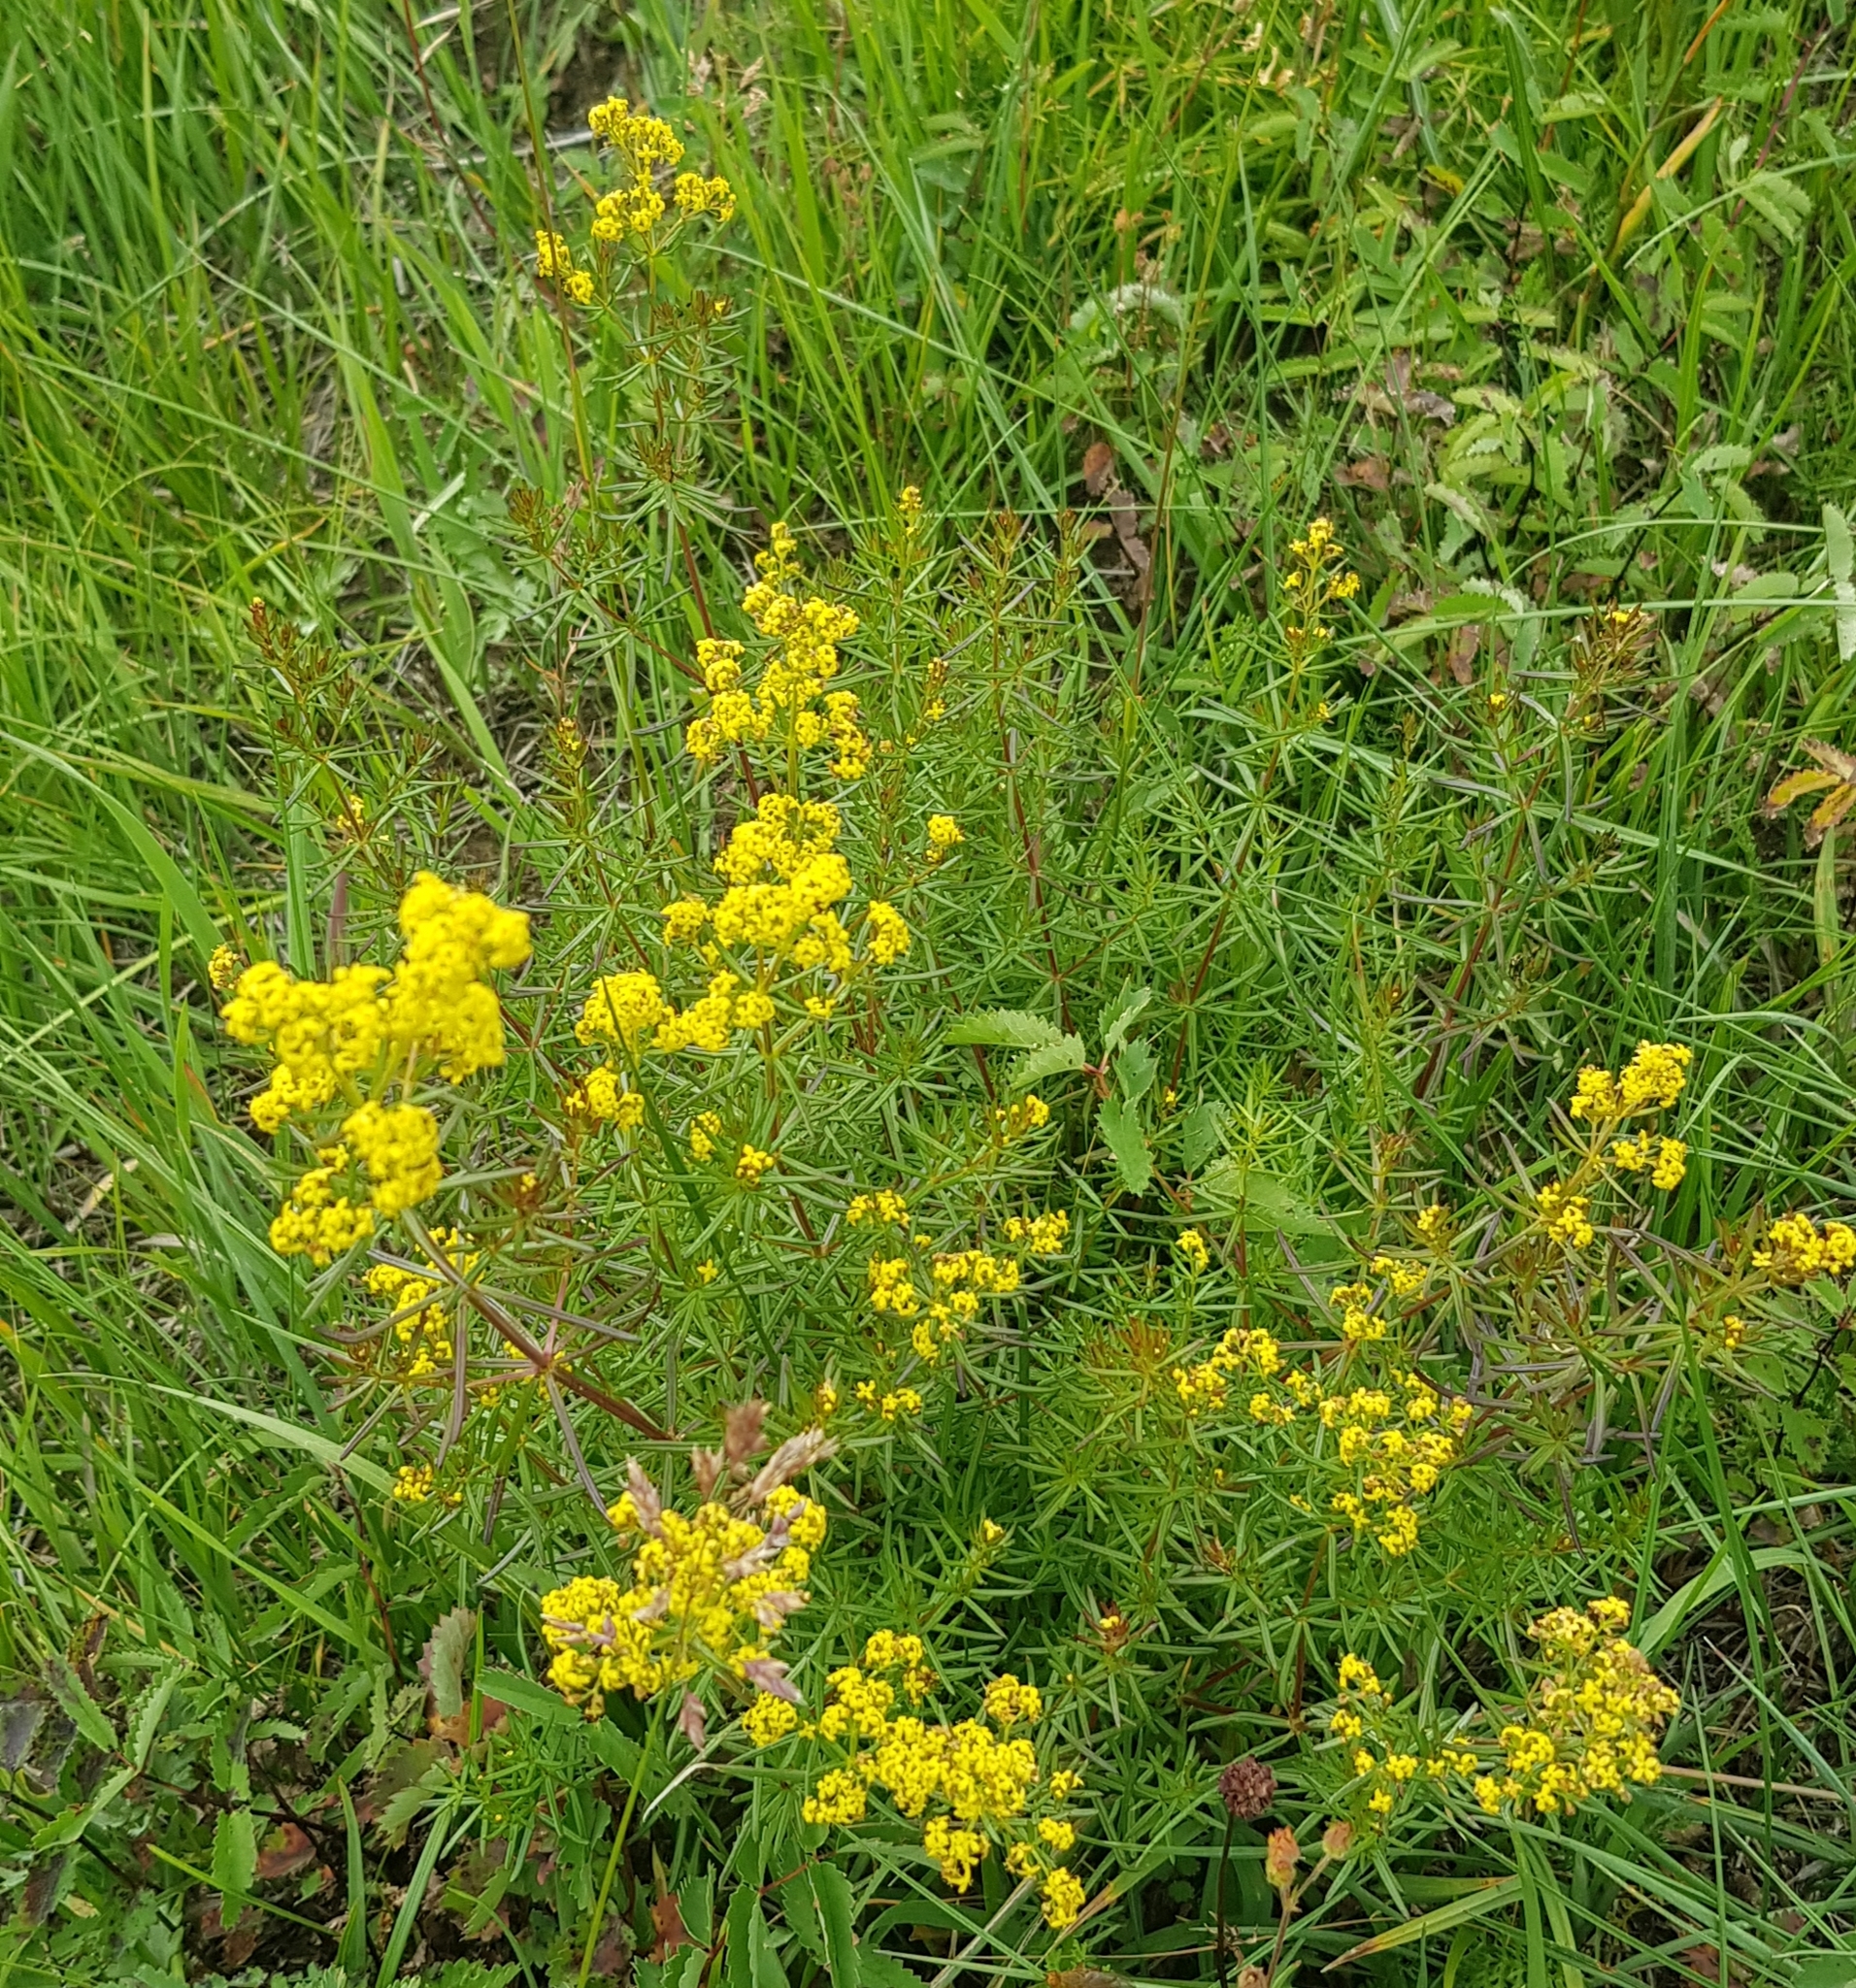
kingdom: Plantae
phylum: Tracheophyta
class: Magnoliopsida
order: Gentianales
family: Rubiaceae
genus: Galium
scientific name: Galium verum
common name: Lady's bedstraw
